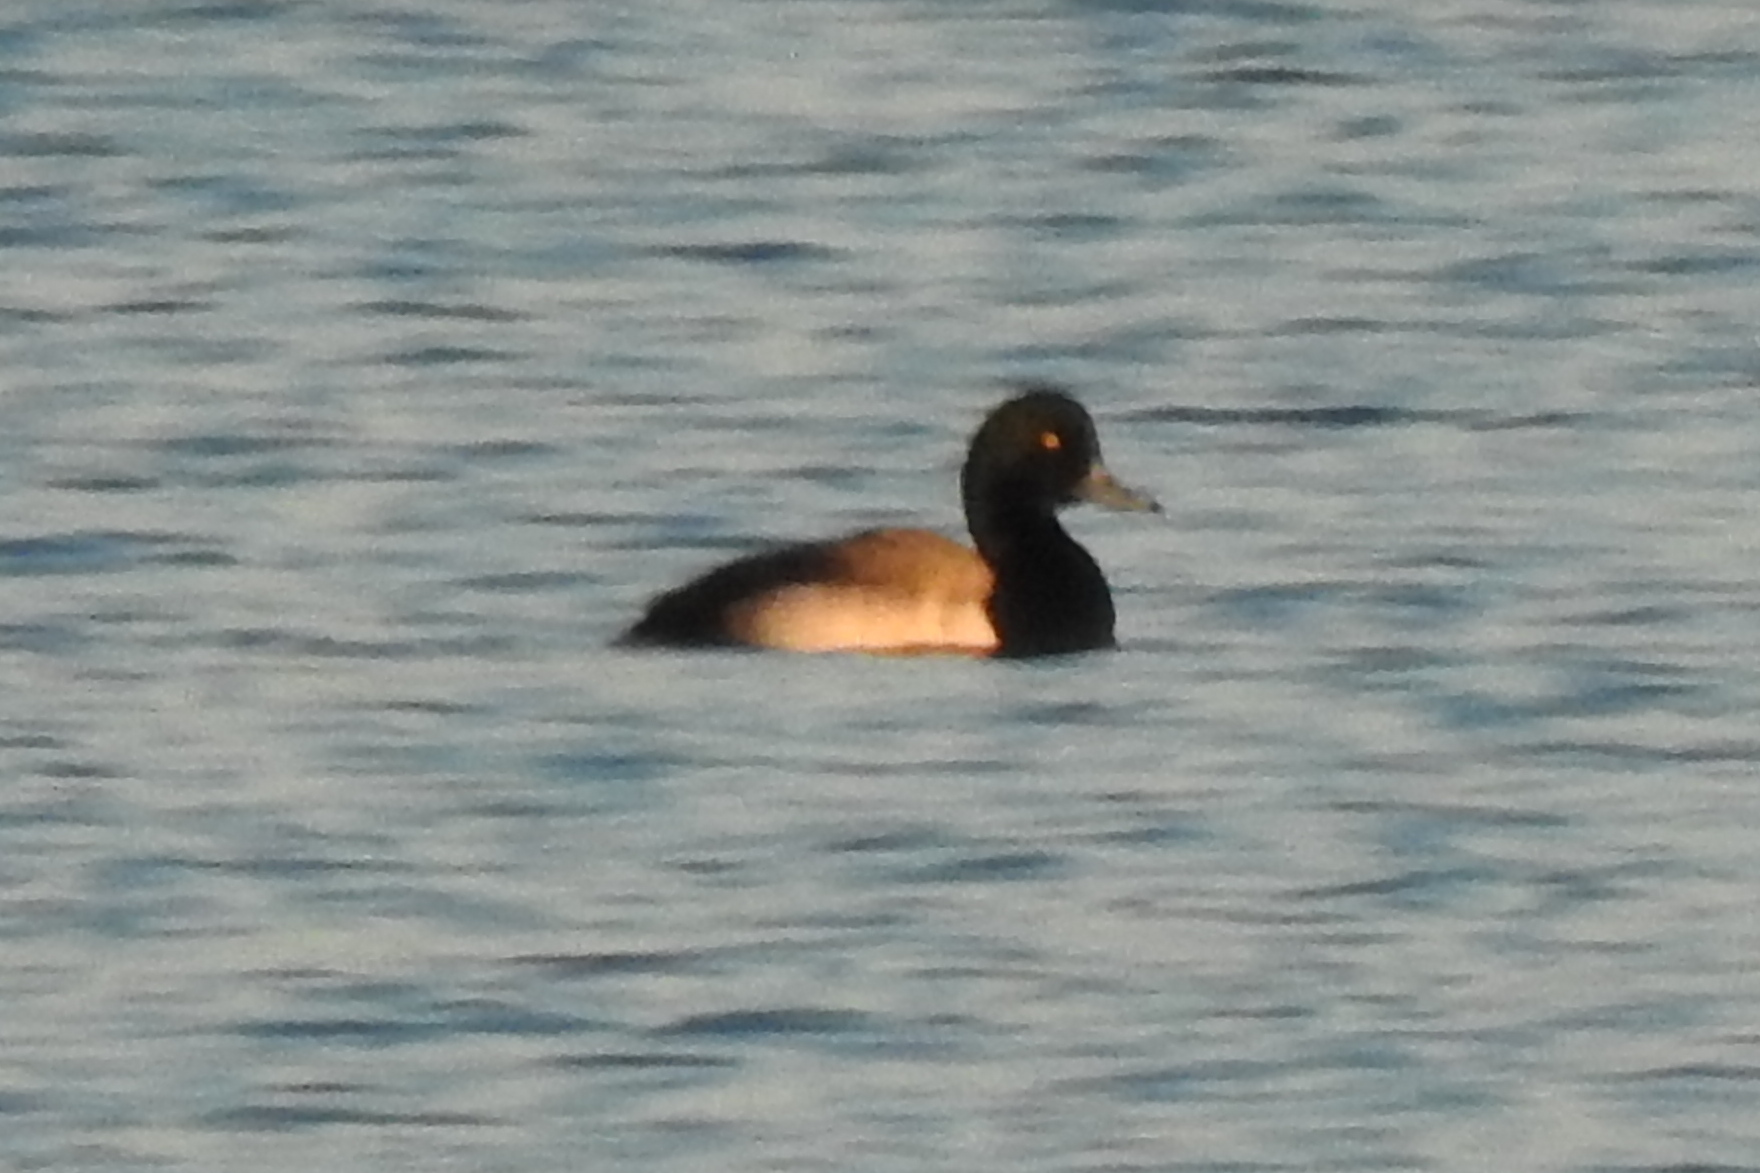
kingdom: Animalia
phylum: Chordata
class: Aves
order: Anseriformes
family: Anatidae
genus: Aythya
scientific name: Aythya marila
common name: Greater scaup
